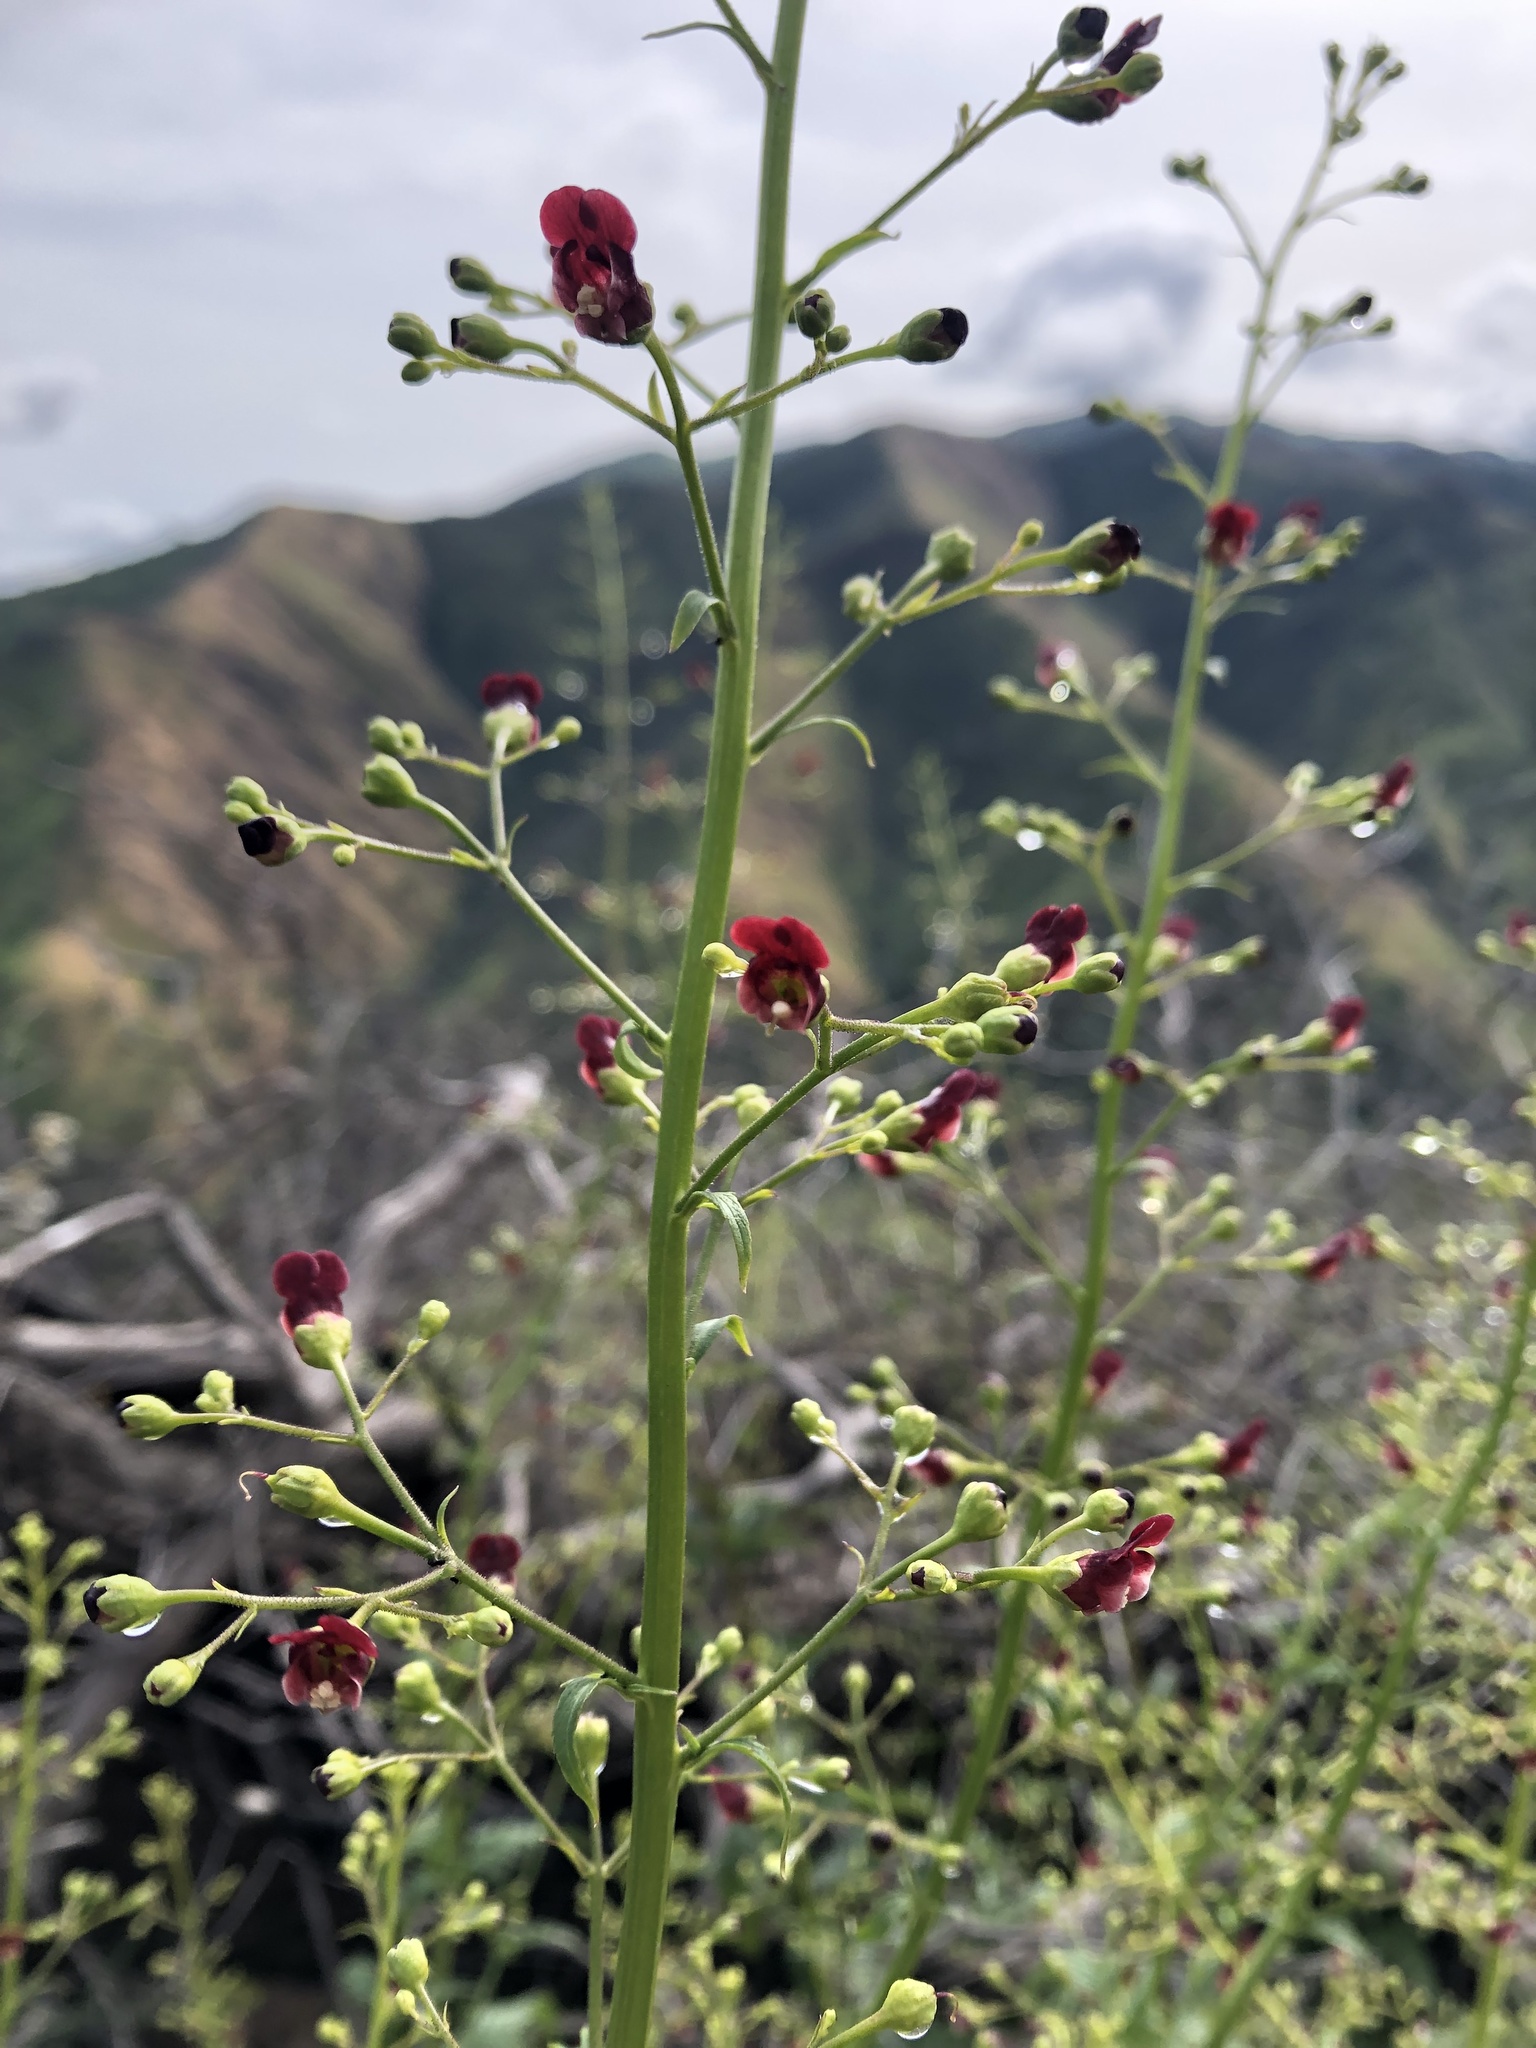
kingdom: Plantae
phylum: Tracheophyta
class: Magnoliopsida
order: Lamiales
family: Scrophulariaceae
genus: Scrophularia
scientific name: Scrophularia californica
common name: California figwort
